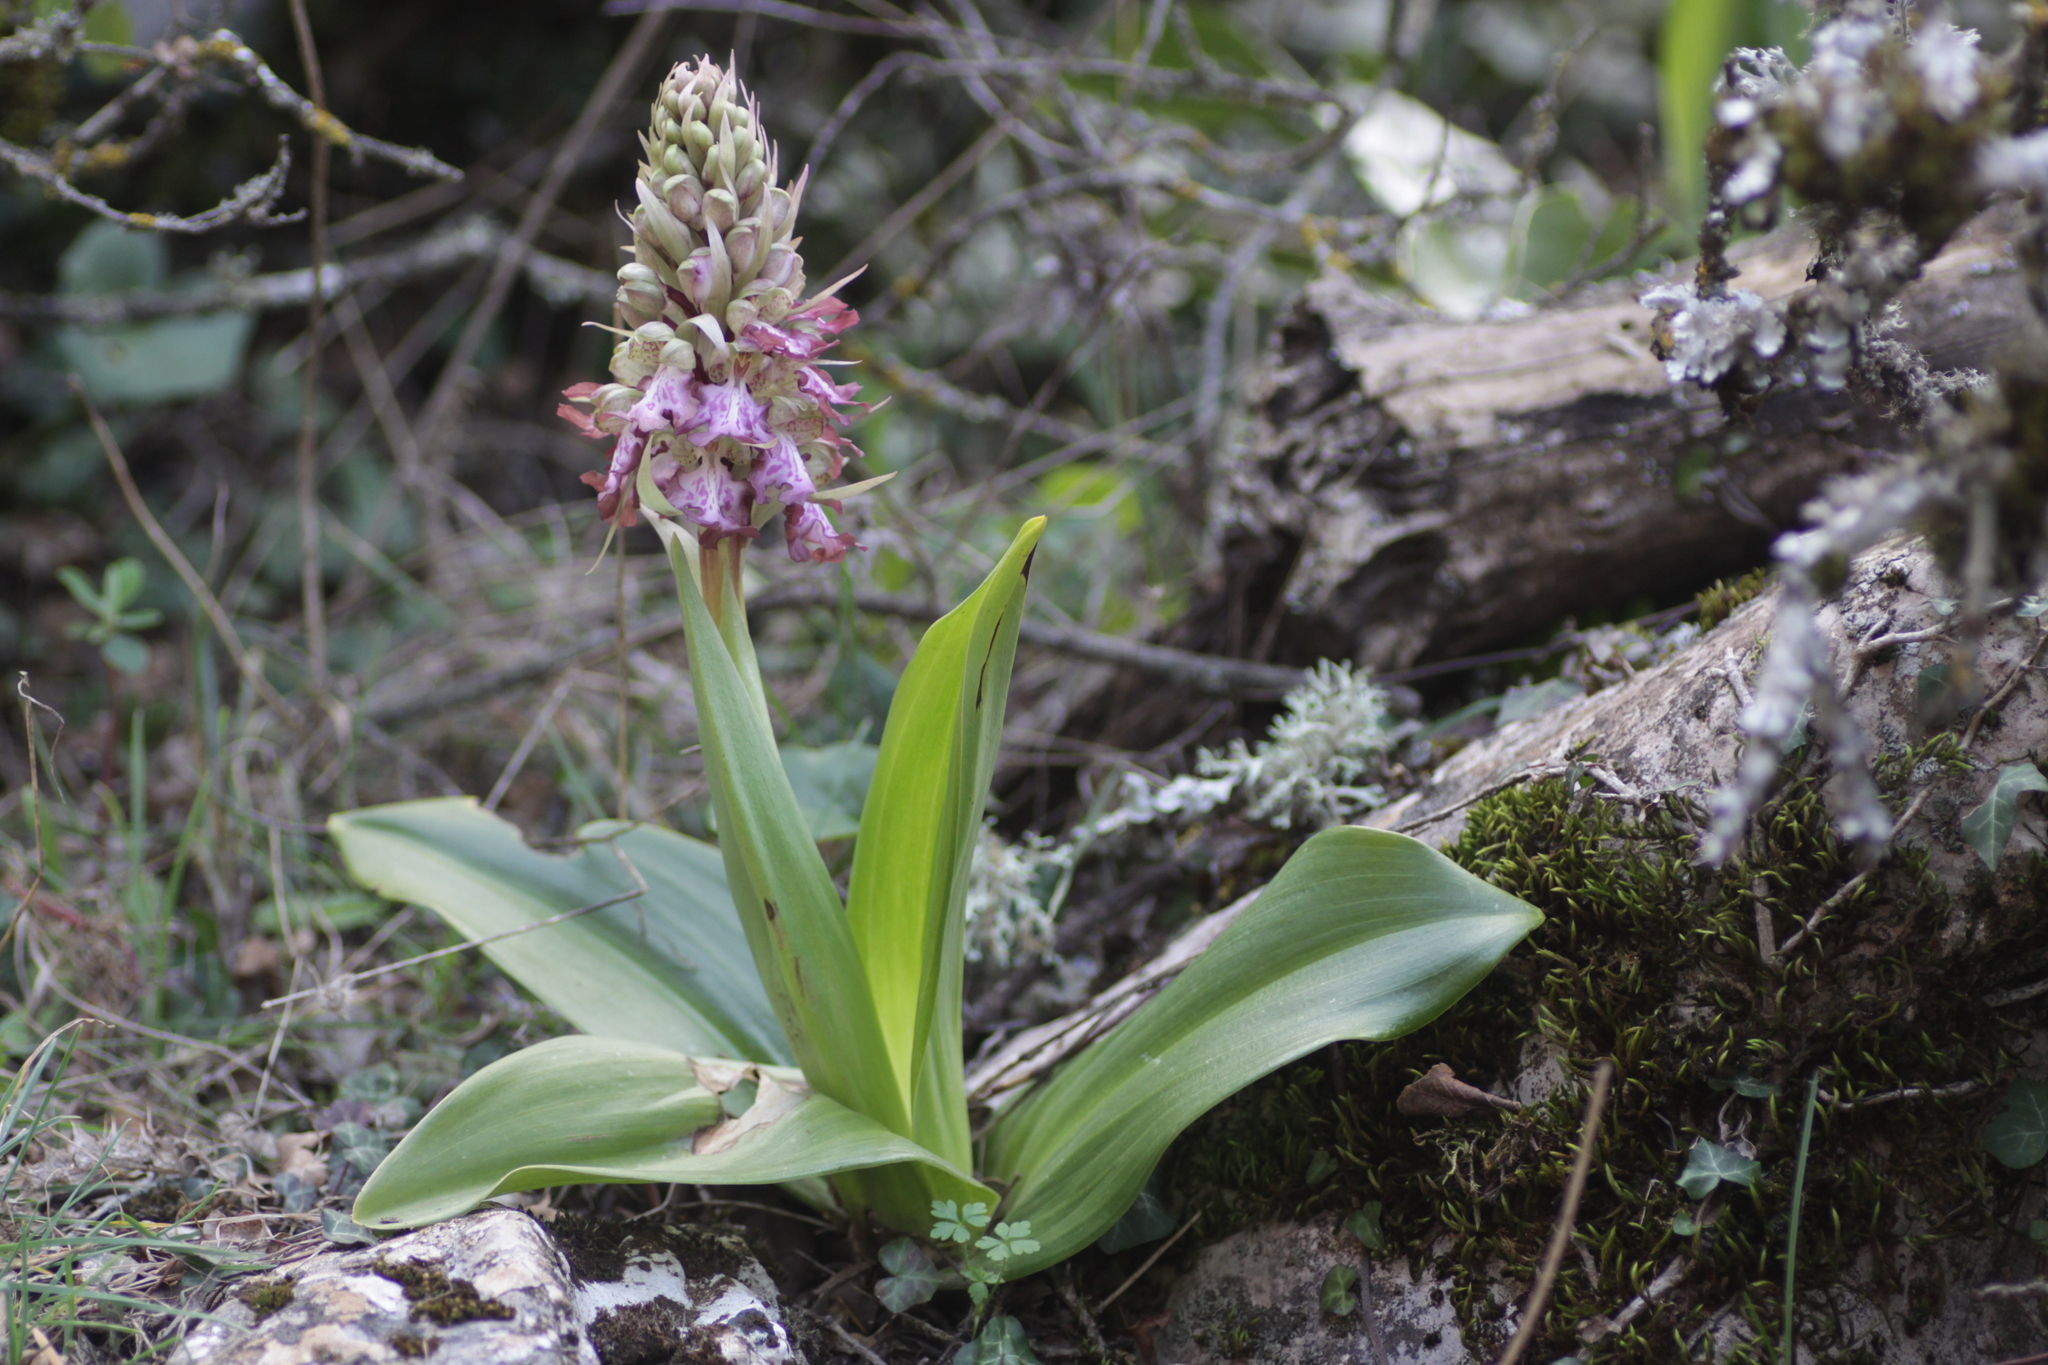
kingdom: Plantae
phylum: Tracheophyta
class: Liliopsida
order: Asparagales
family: Orchidaceae
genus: Himantoglossum
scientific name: Himantoglossum robertianum
